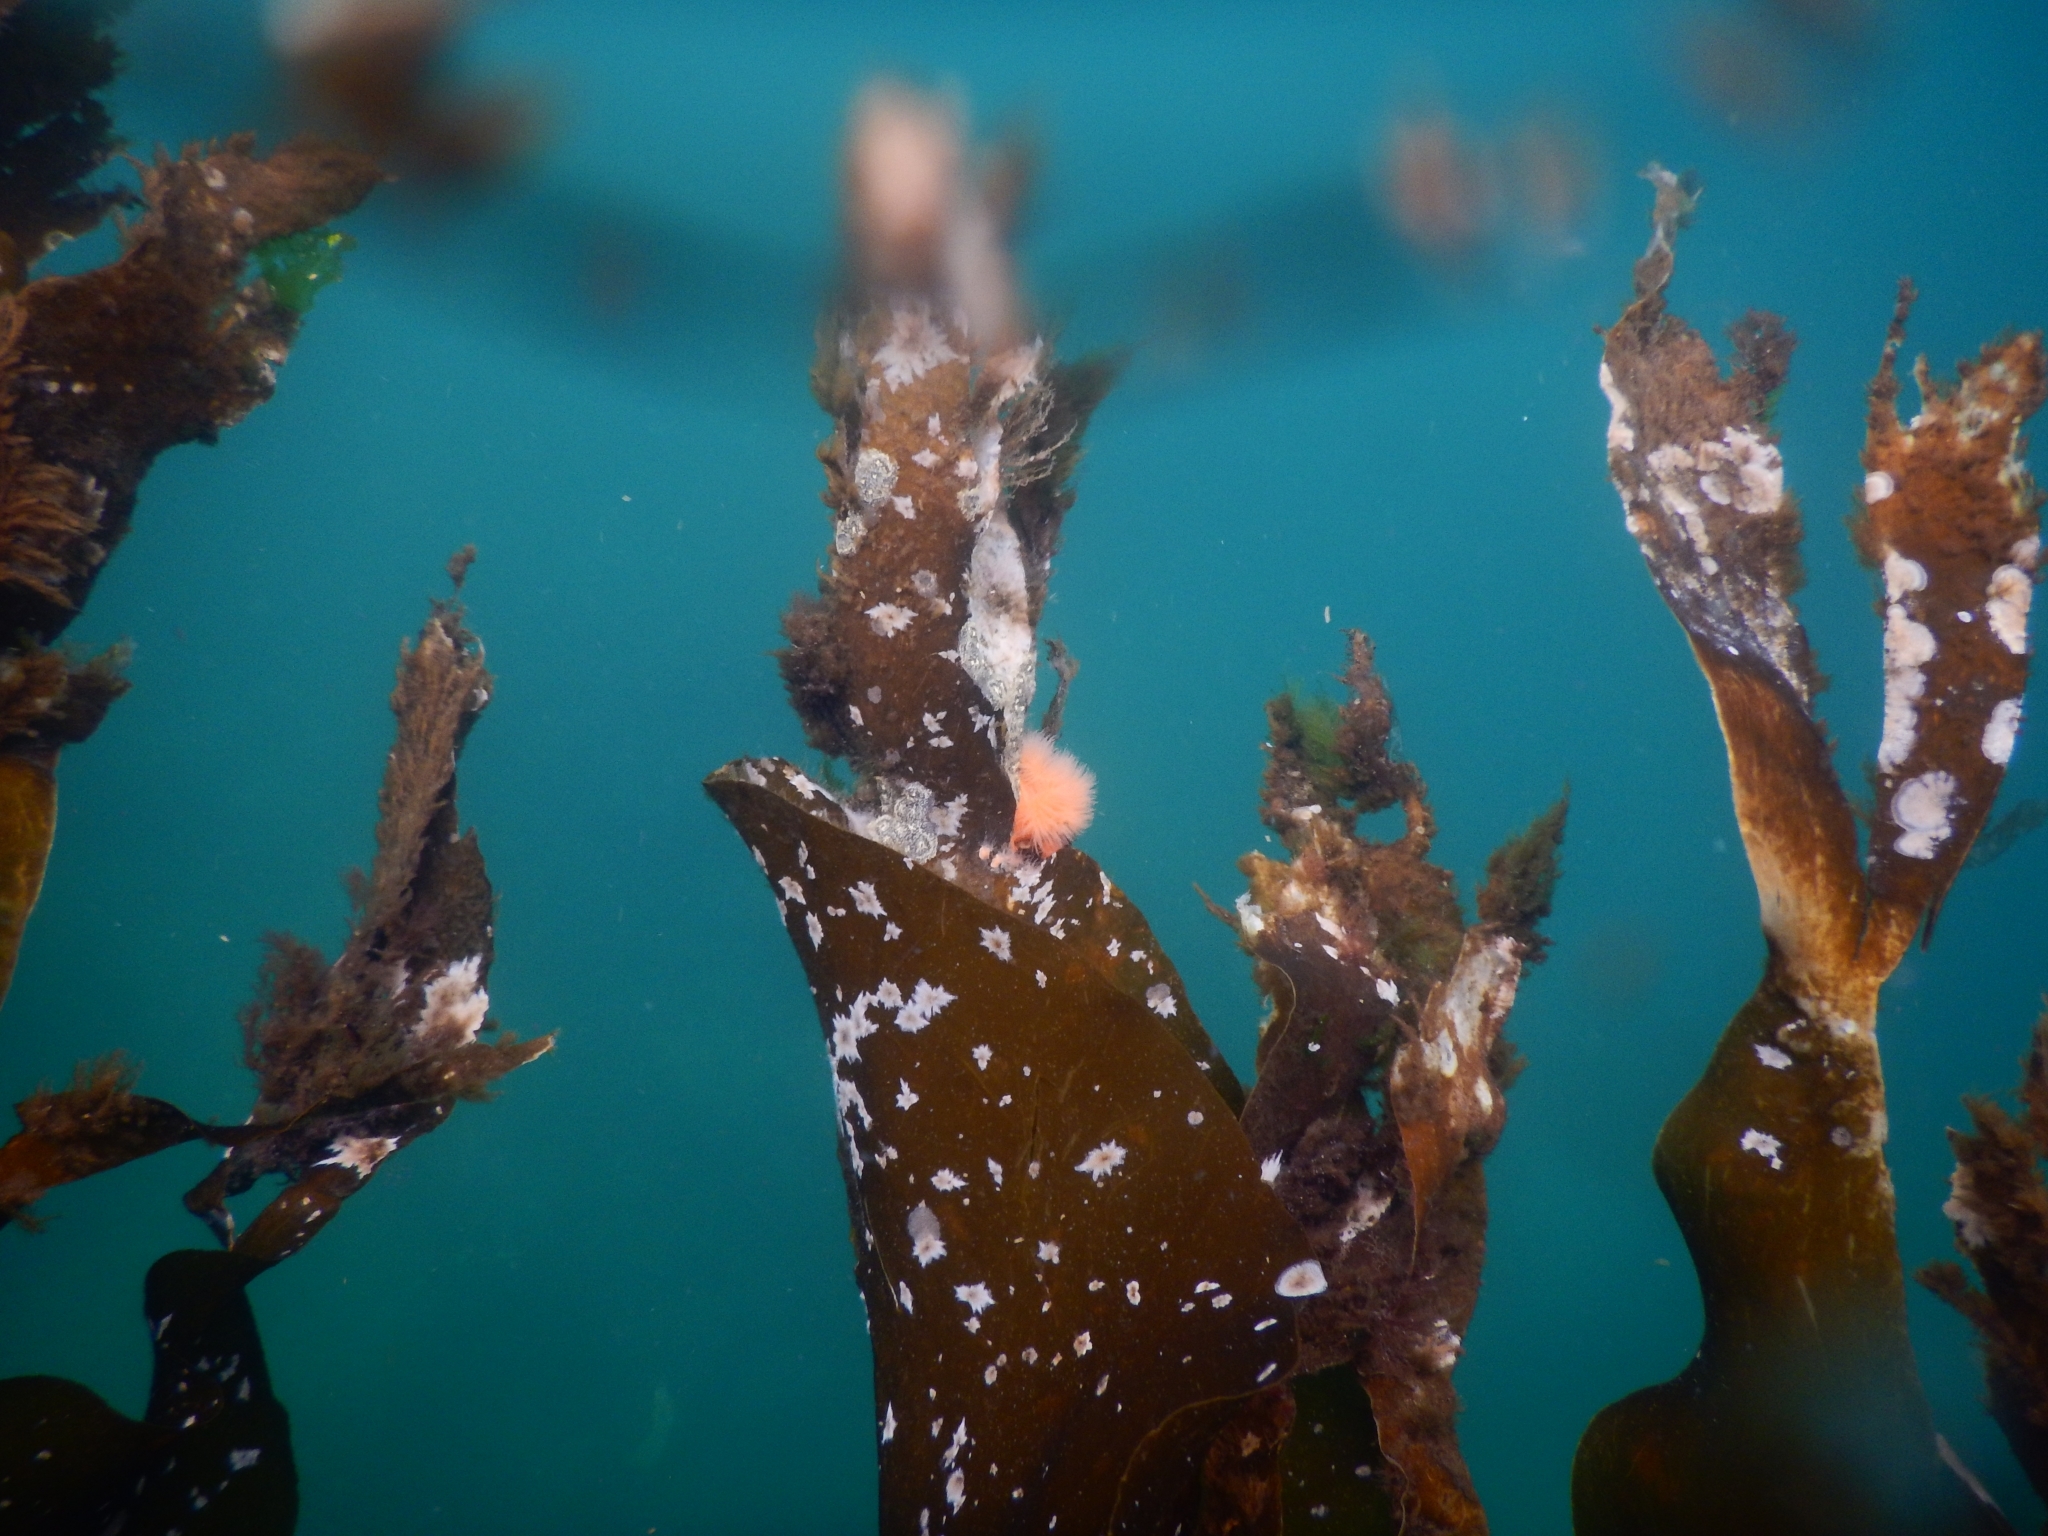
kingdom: Animalia
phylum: Cnidaria
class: Anthozoa
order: Actiniaria
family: Metridiidae
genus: Metridium
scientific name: Metridium senile
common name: Clonal plumose anemone
